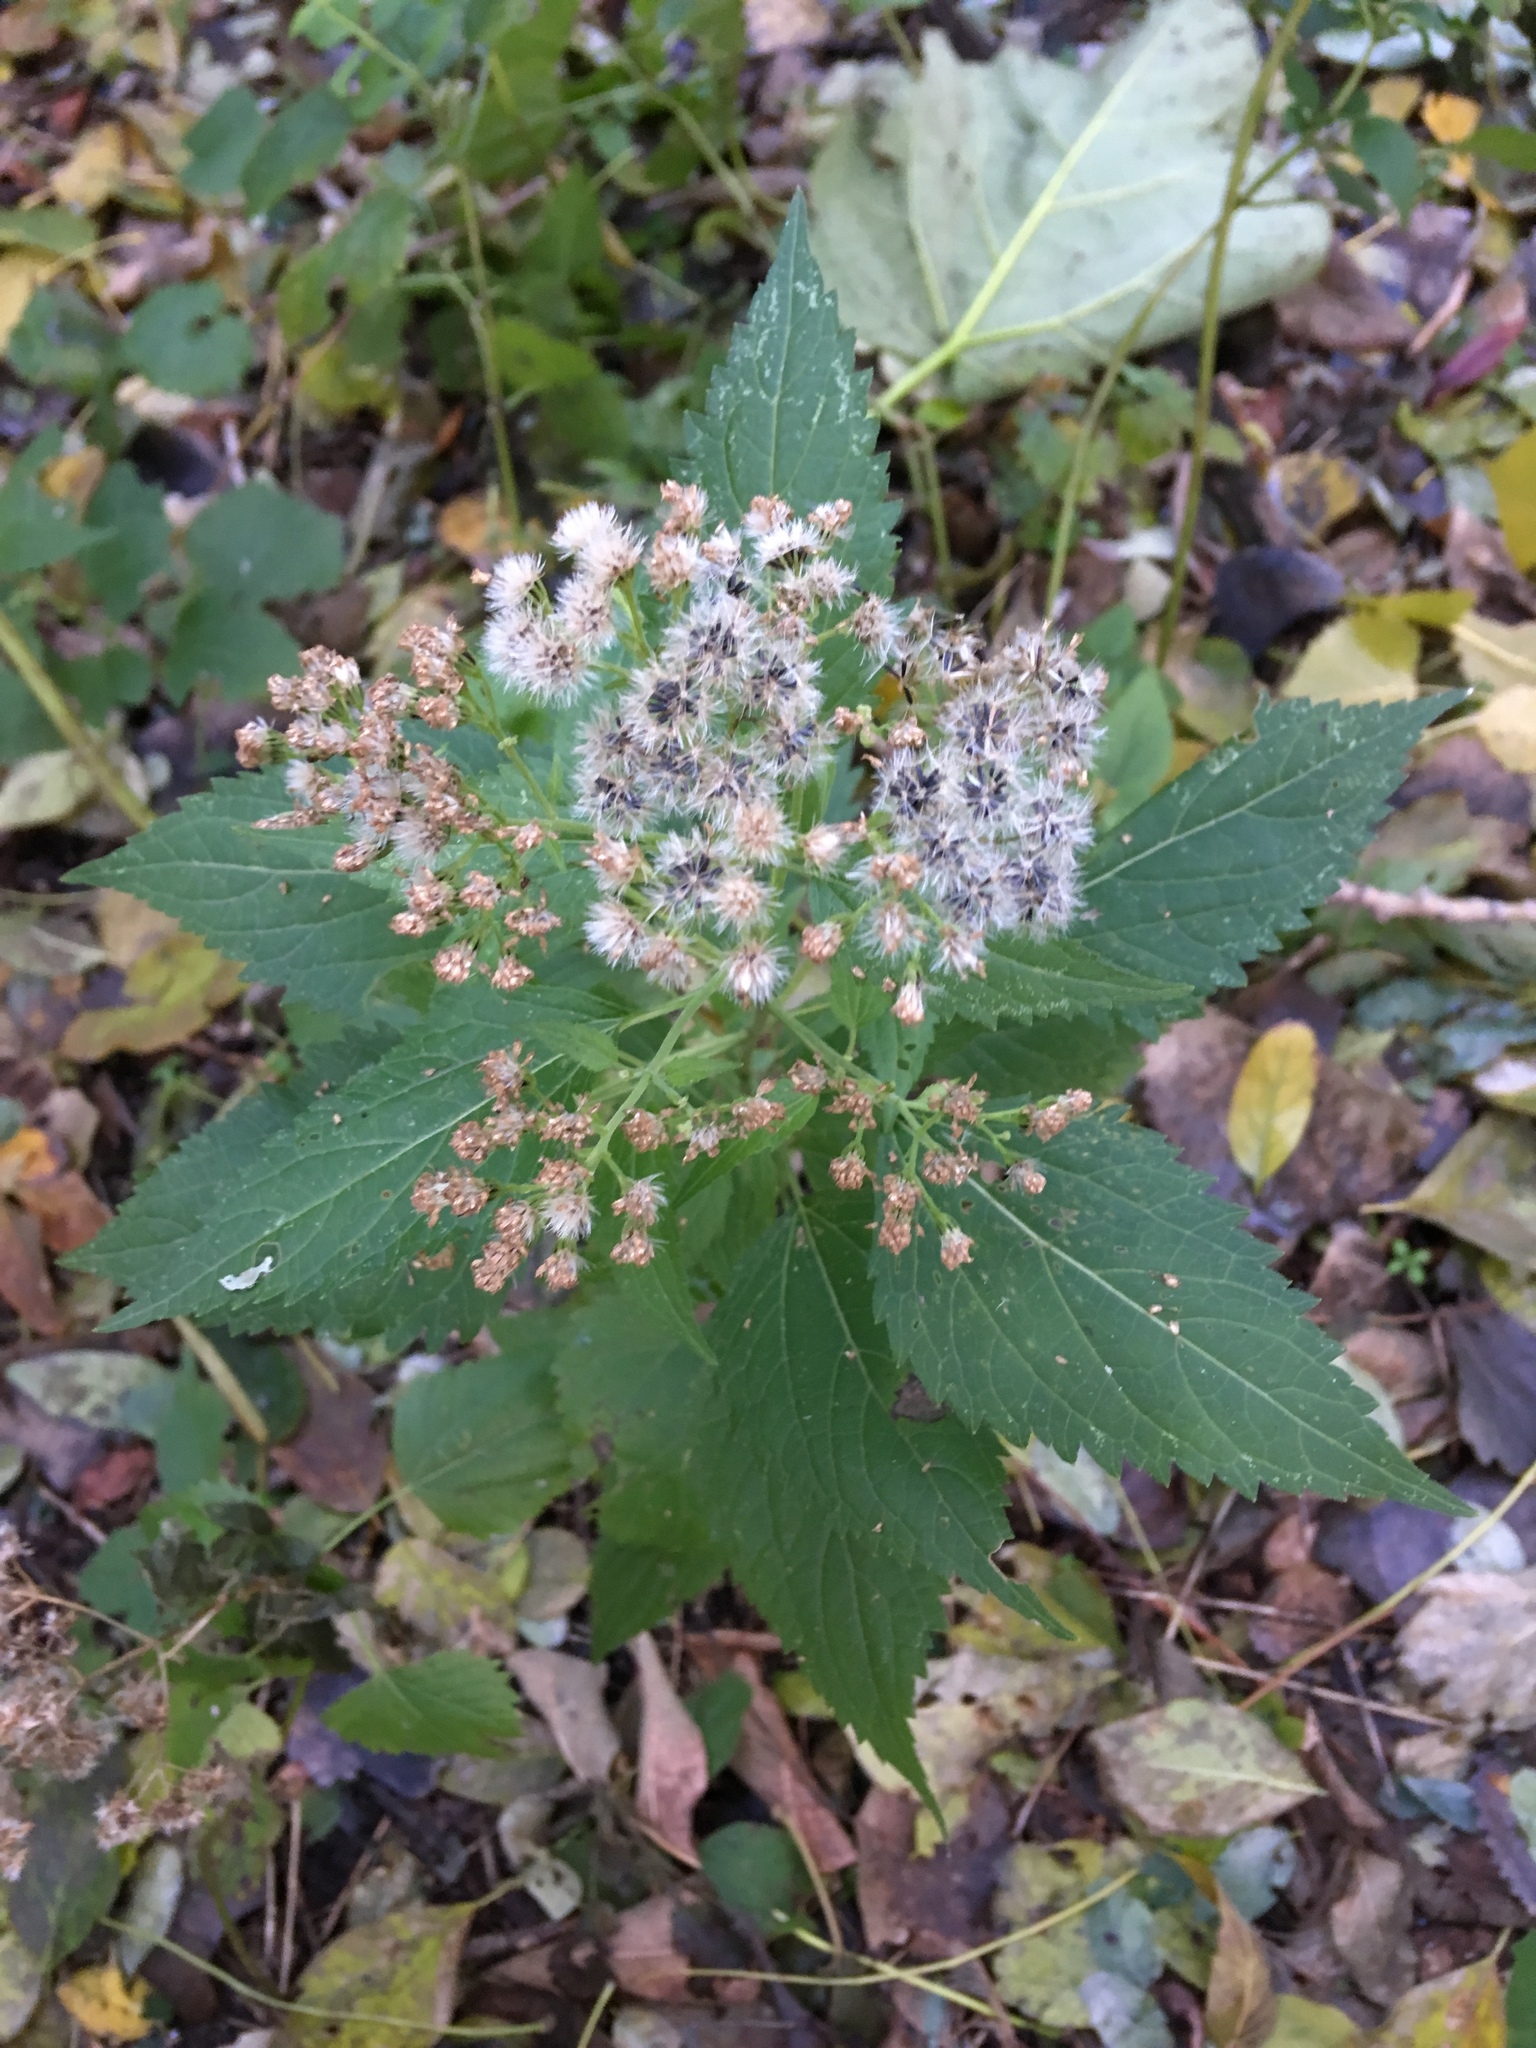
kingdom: Plantae
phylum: Tracheophyta
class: Magnoliopsida
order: Asterales
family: Asteraceae
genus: Ageratina
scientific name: Ageratina altissima
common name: White snakeroot
